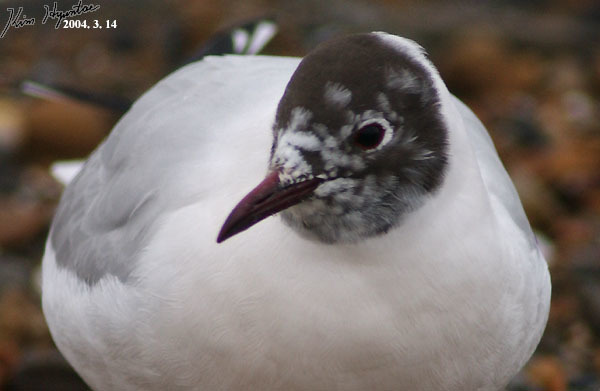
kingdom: Animalia
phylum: Chordata
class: Aves
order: Charadriiformes
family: Laridae
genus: Chroicocephalus
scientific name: Chroicocephalus ridibundus
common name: Black-headed gull
